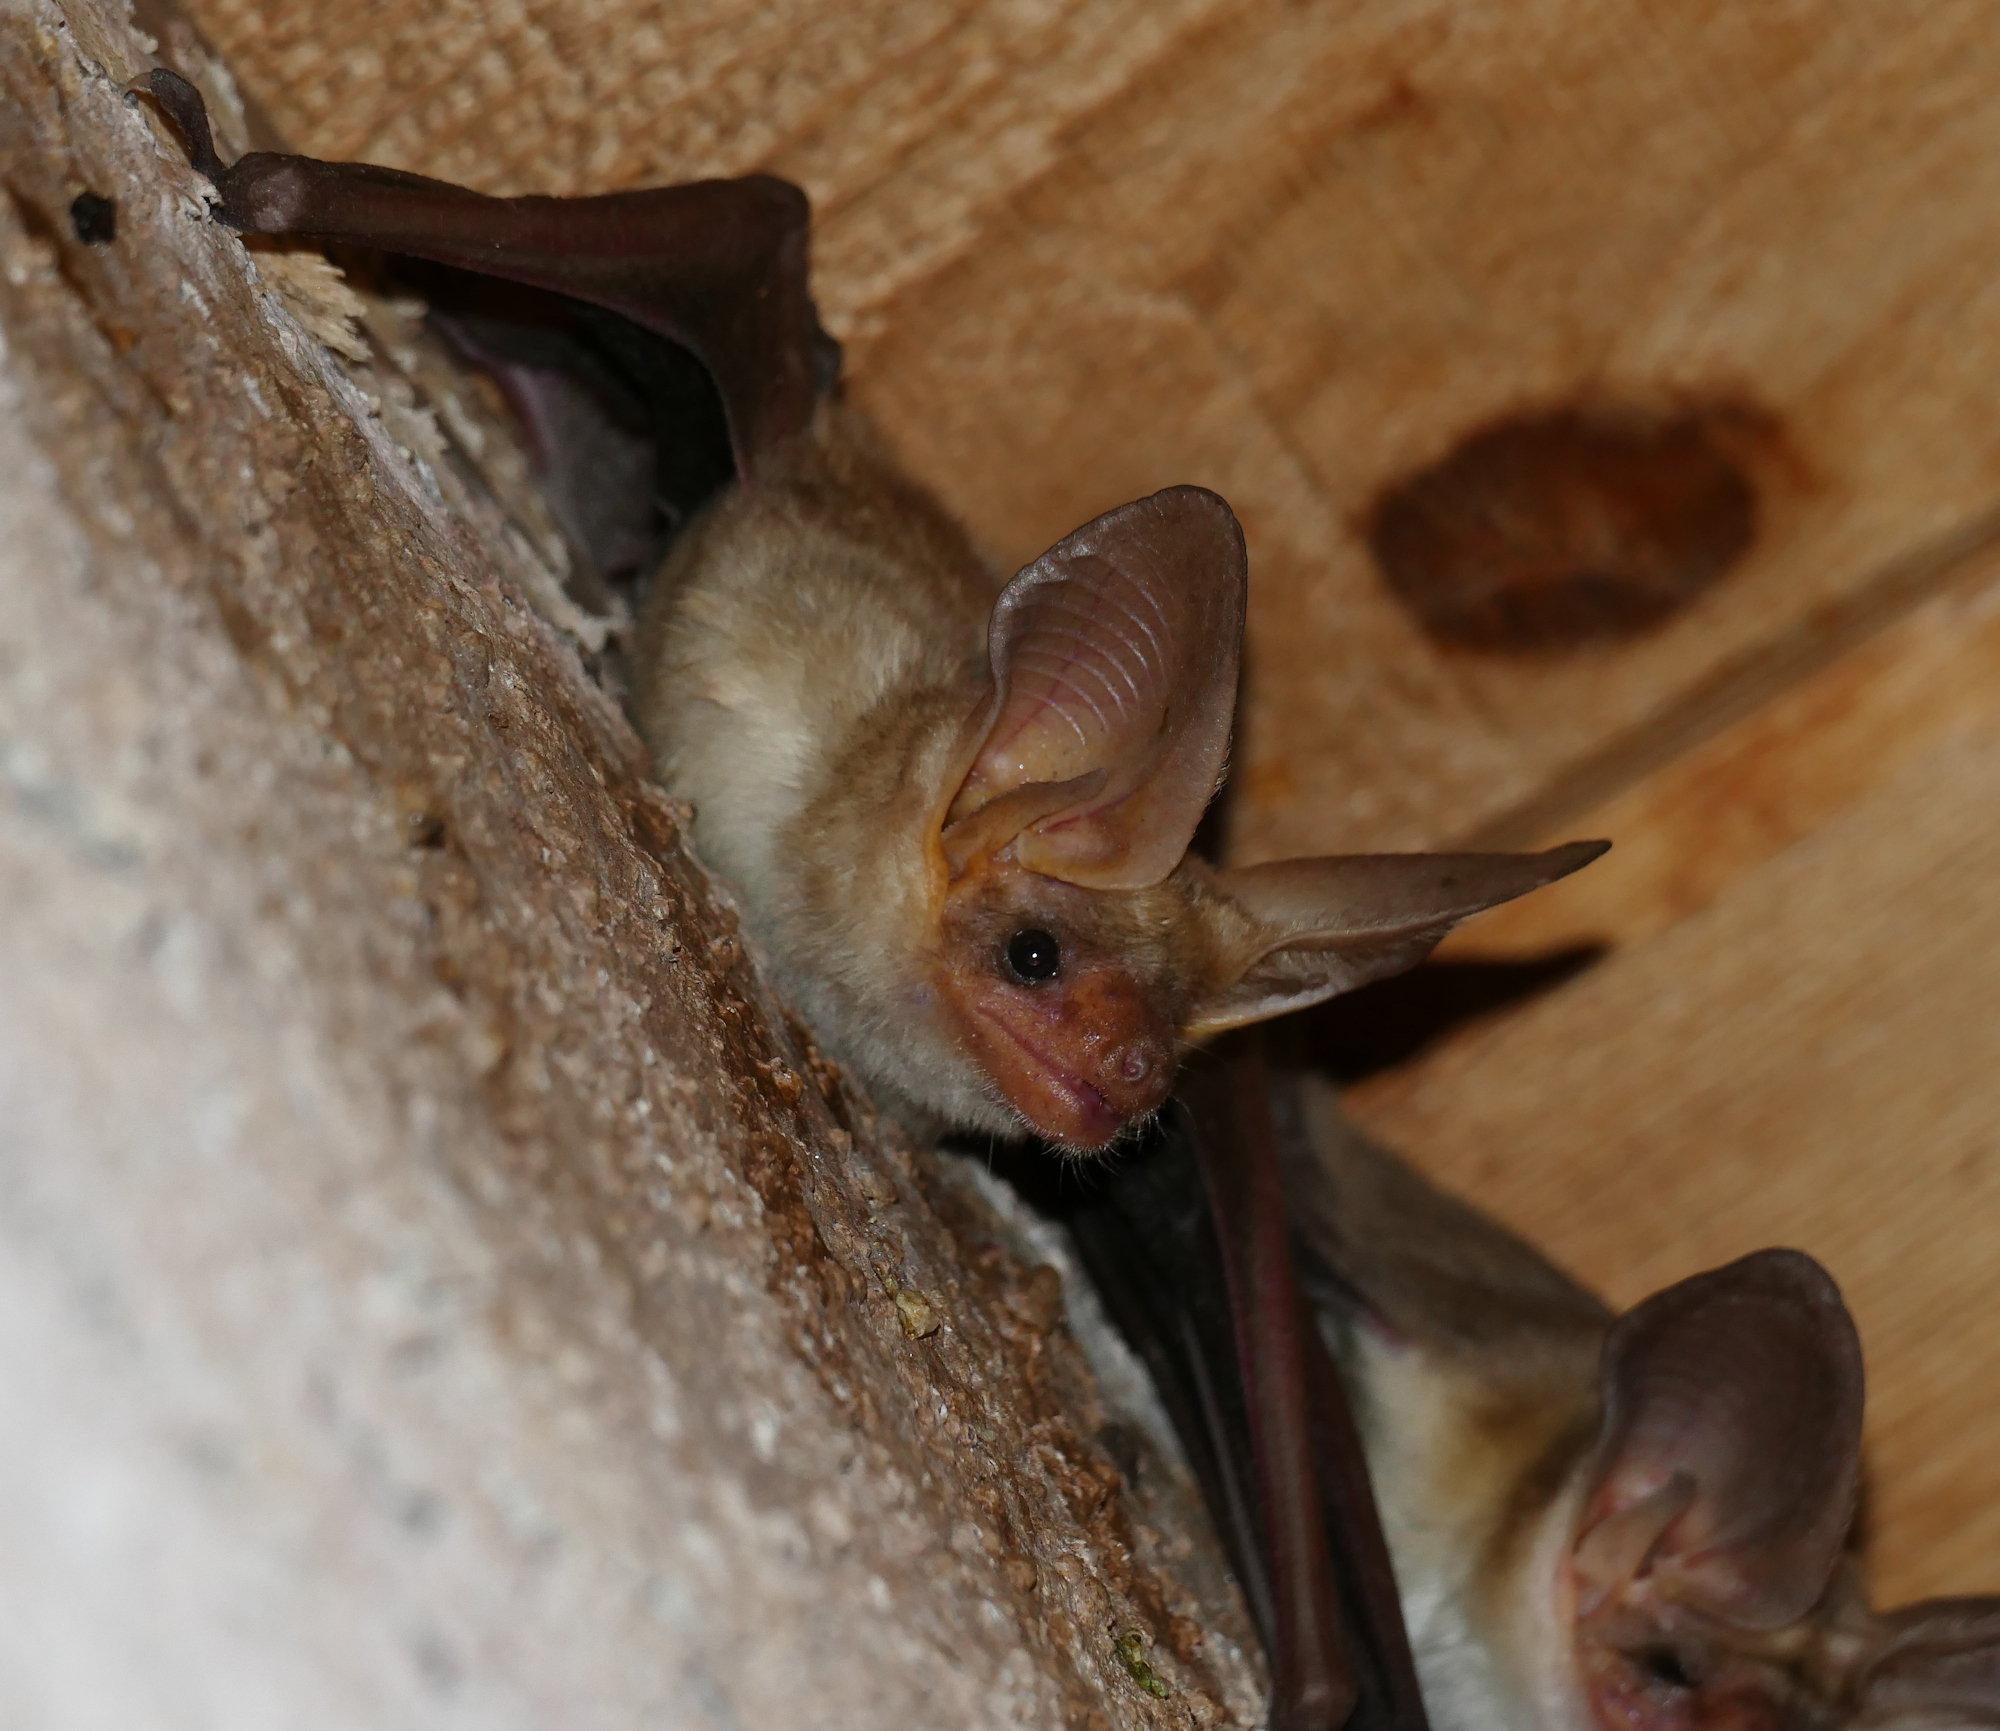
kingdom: Animalia
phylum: Chordata
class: Mammalia
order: Chiroptera
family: Vespertilionidae
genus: Antrozous
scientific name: Antrozous pallidus
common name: Pallid bat
